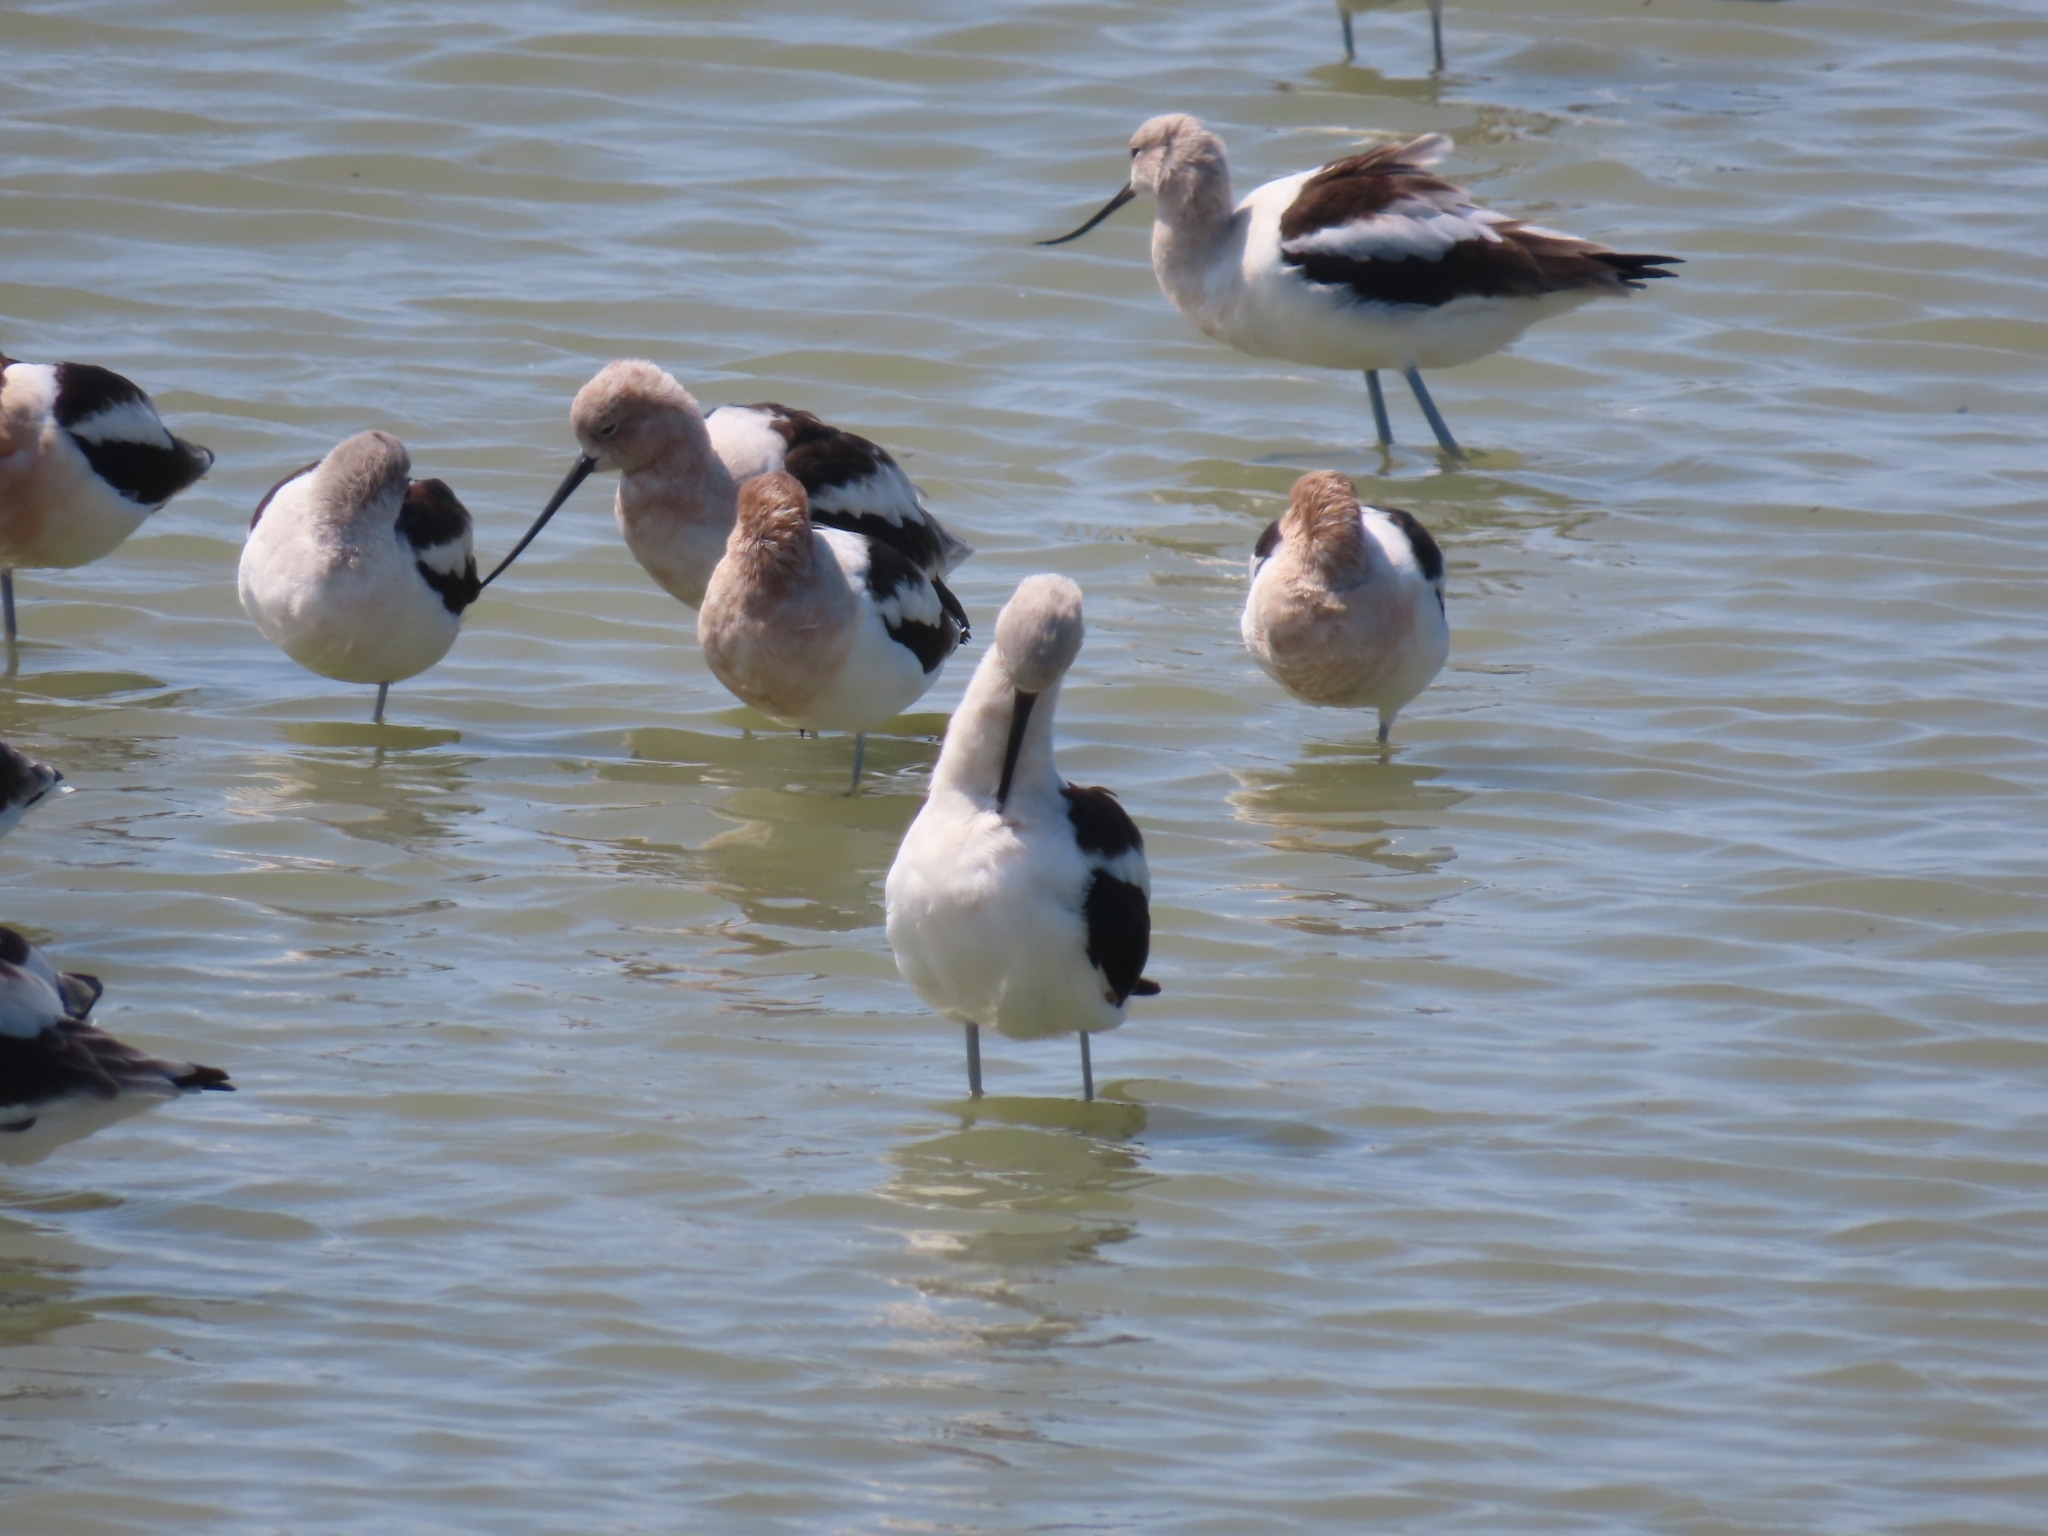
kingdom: Animalia
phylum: Chordata
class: Aves
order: Charadriiformes
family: Recurvirostridae
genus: Recurvirostra
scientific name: Recurvirostra americana
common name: American avocet
